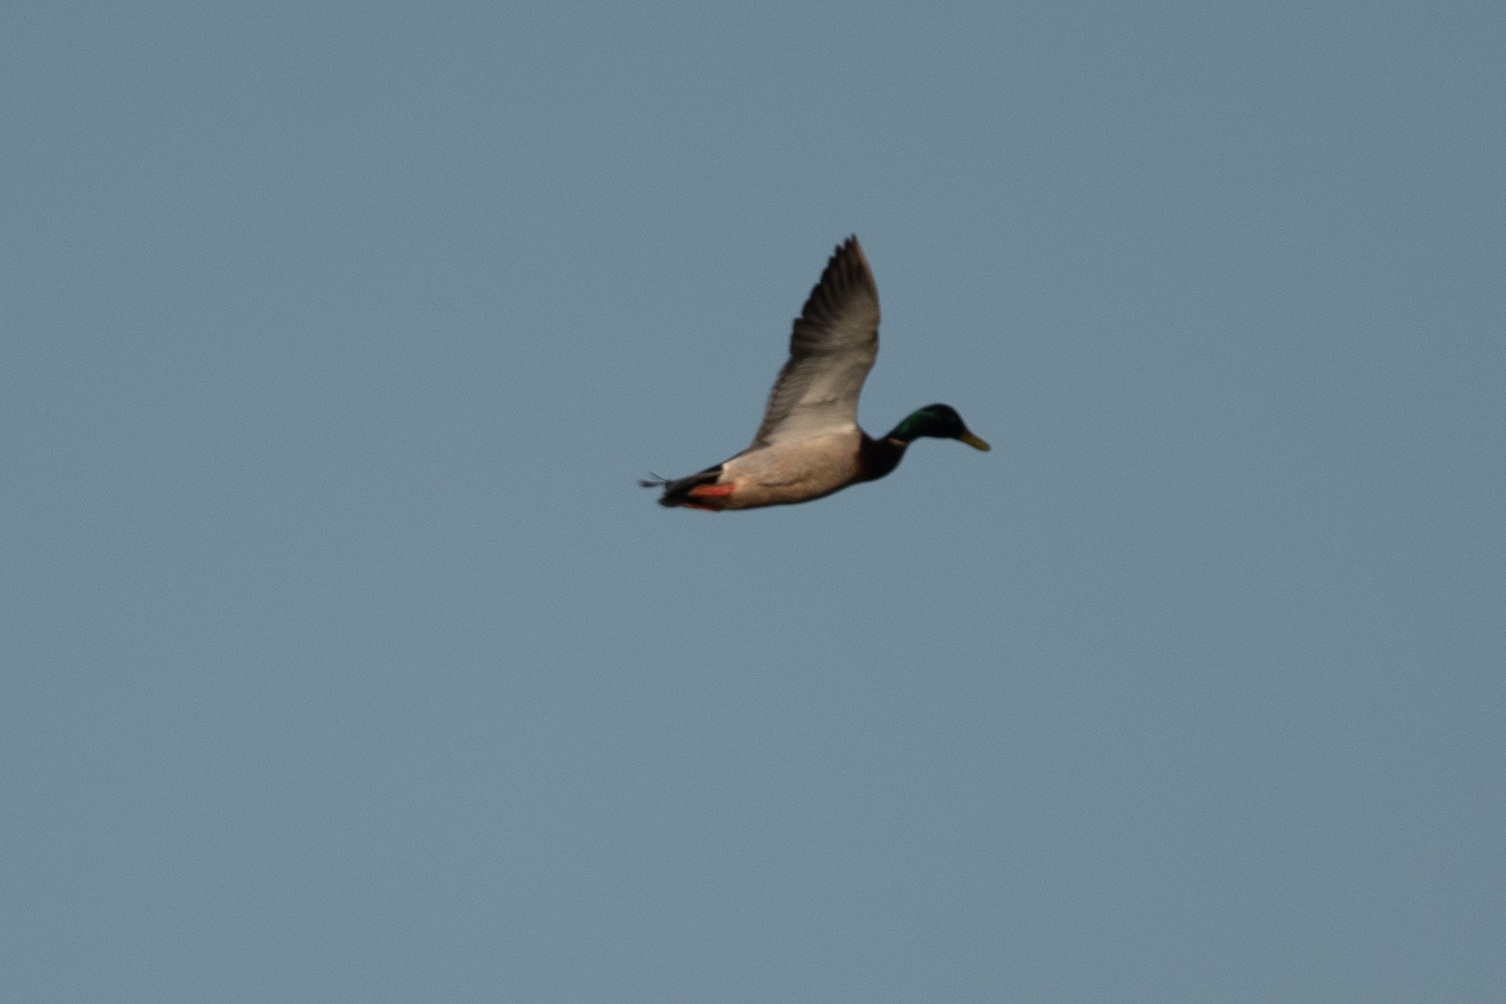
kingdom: Animalia
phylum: Chordata
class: Aves
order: Anseriformes
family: Anatidae
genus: Anas
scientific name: Anas platyrhynchos
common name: Mallard
